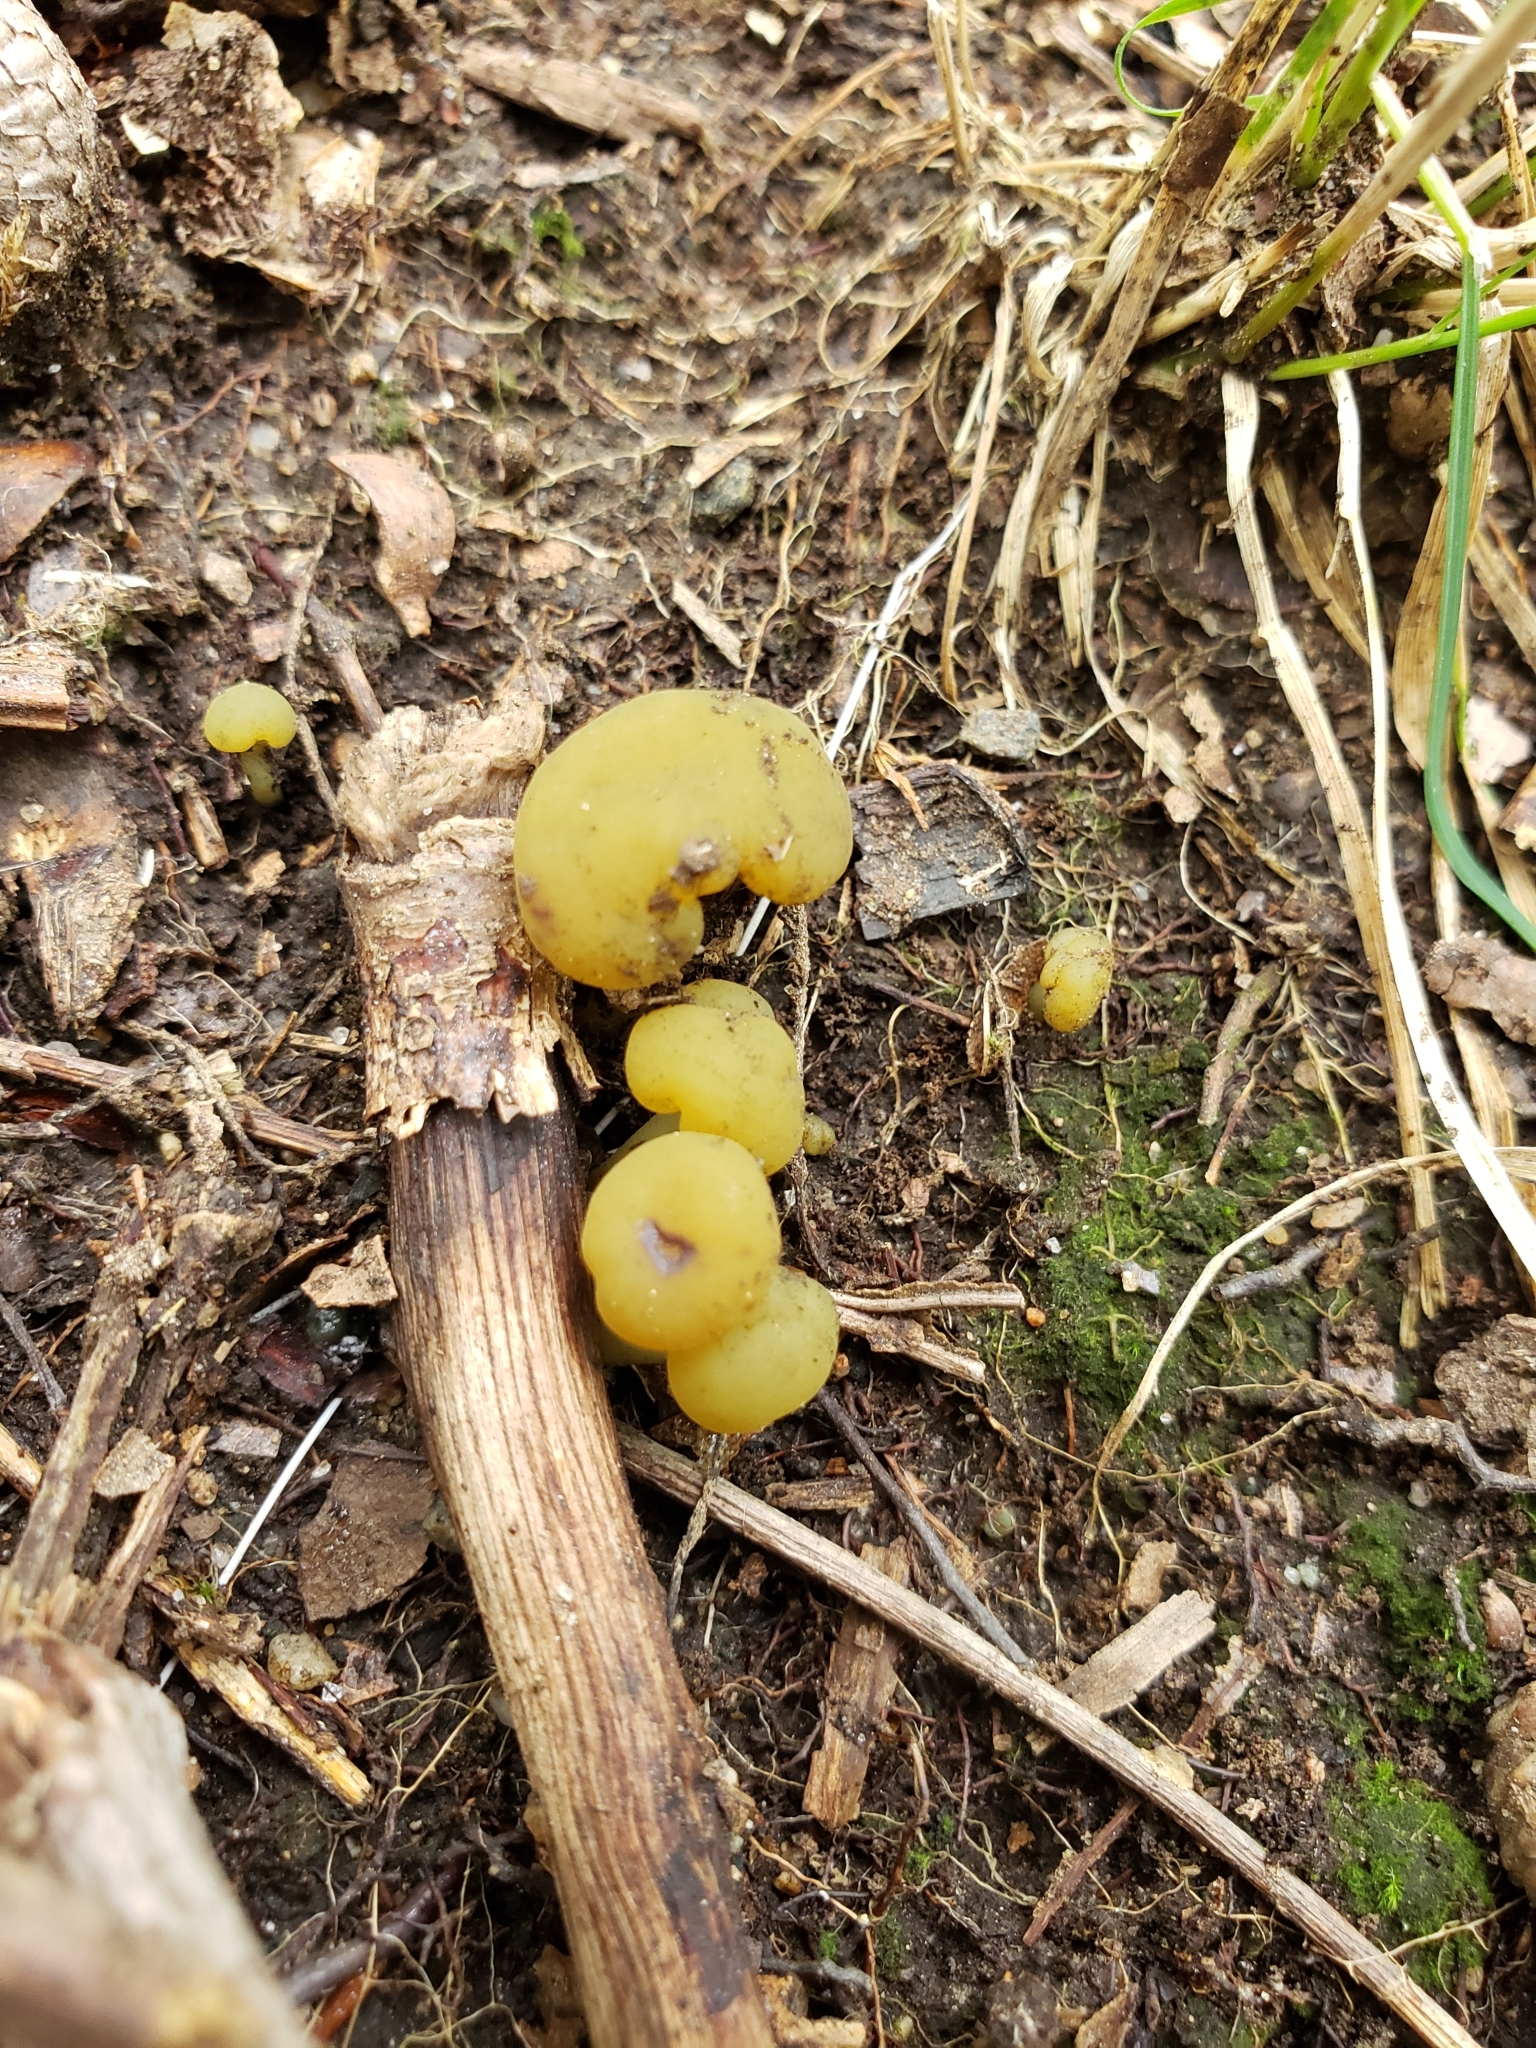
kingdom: Fungi
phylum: Ascomycota
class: Leotiomycetes
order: Leotiales
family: Leotiaceae
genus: Leotia
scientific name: Leotia lubrica
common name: Jellybaby
